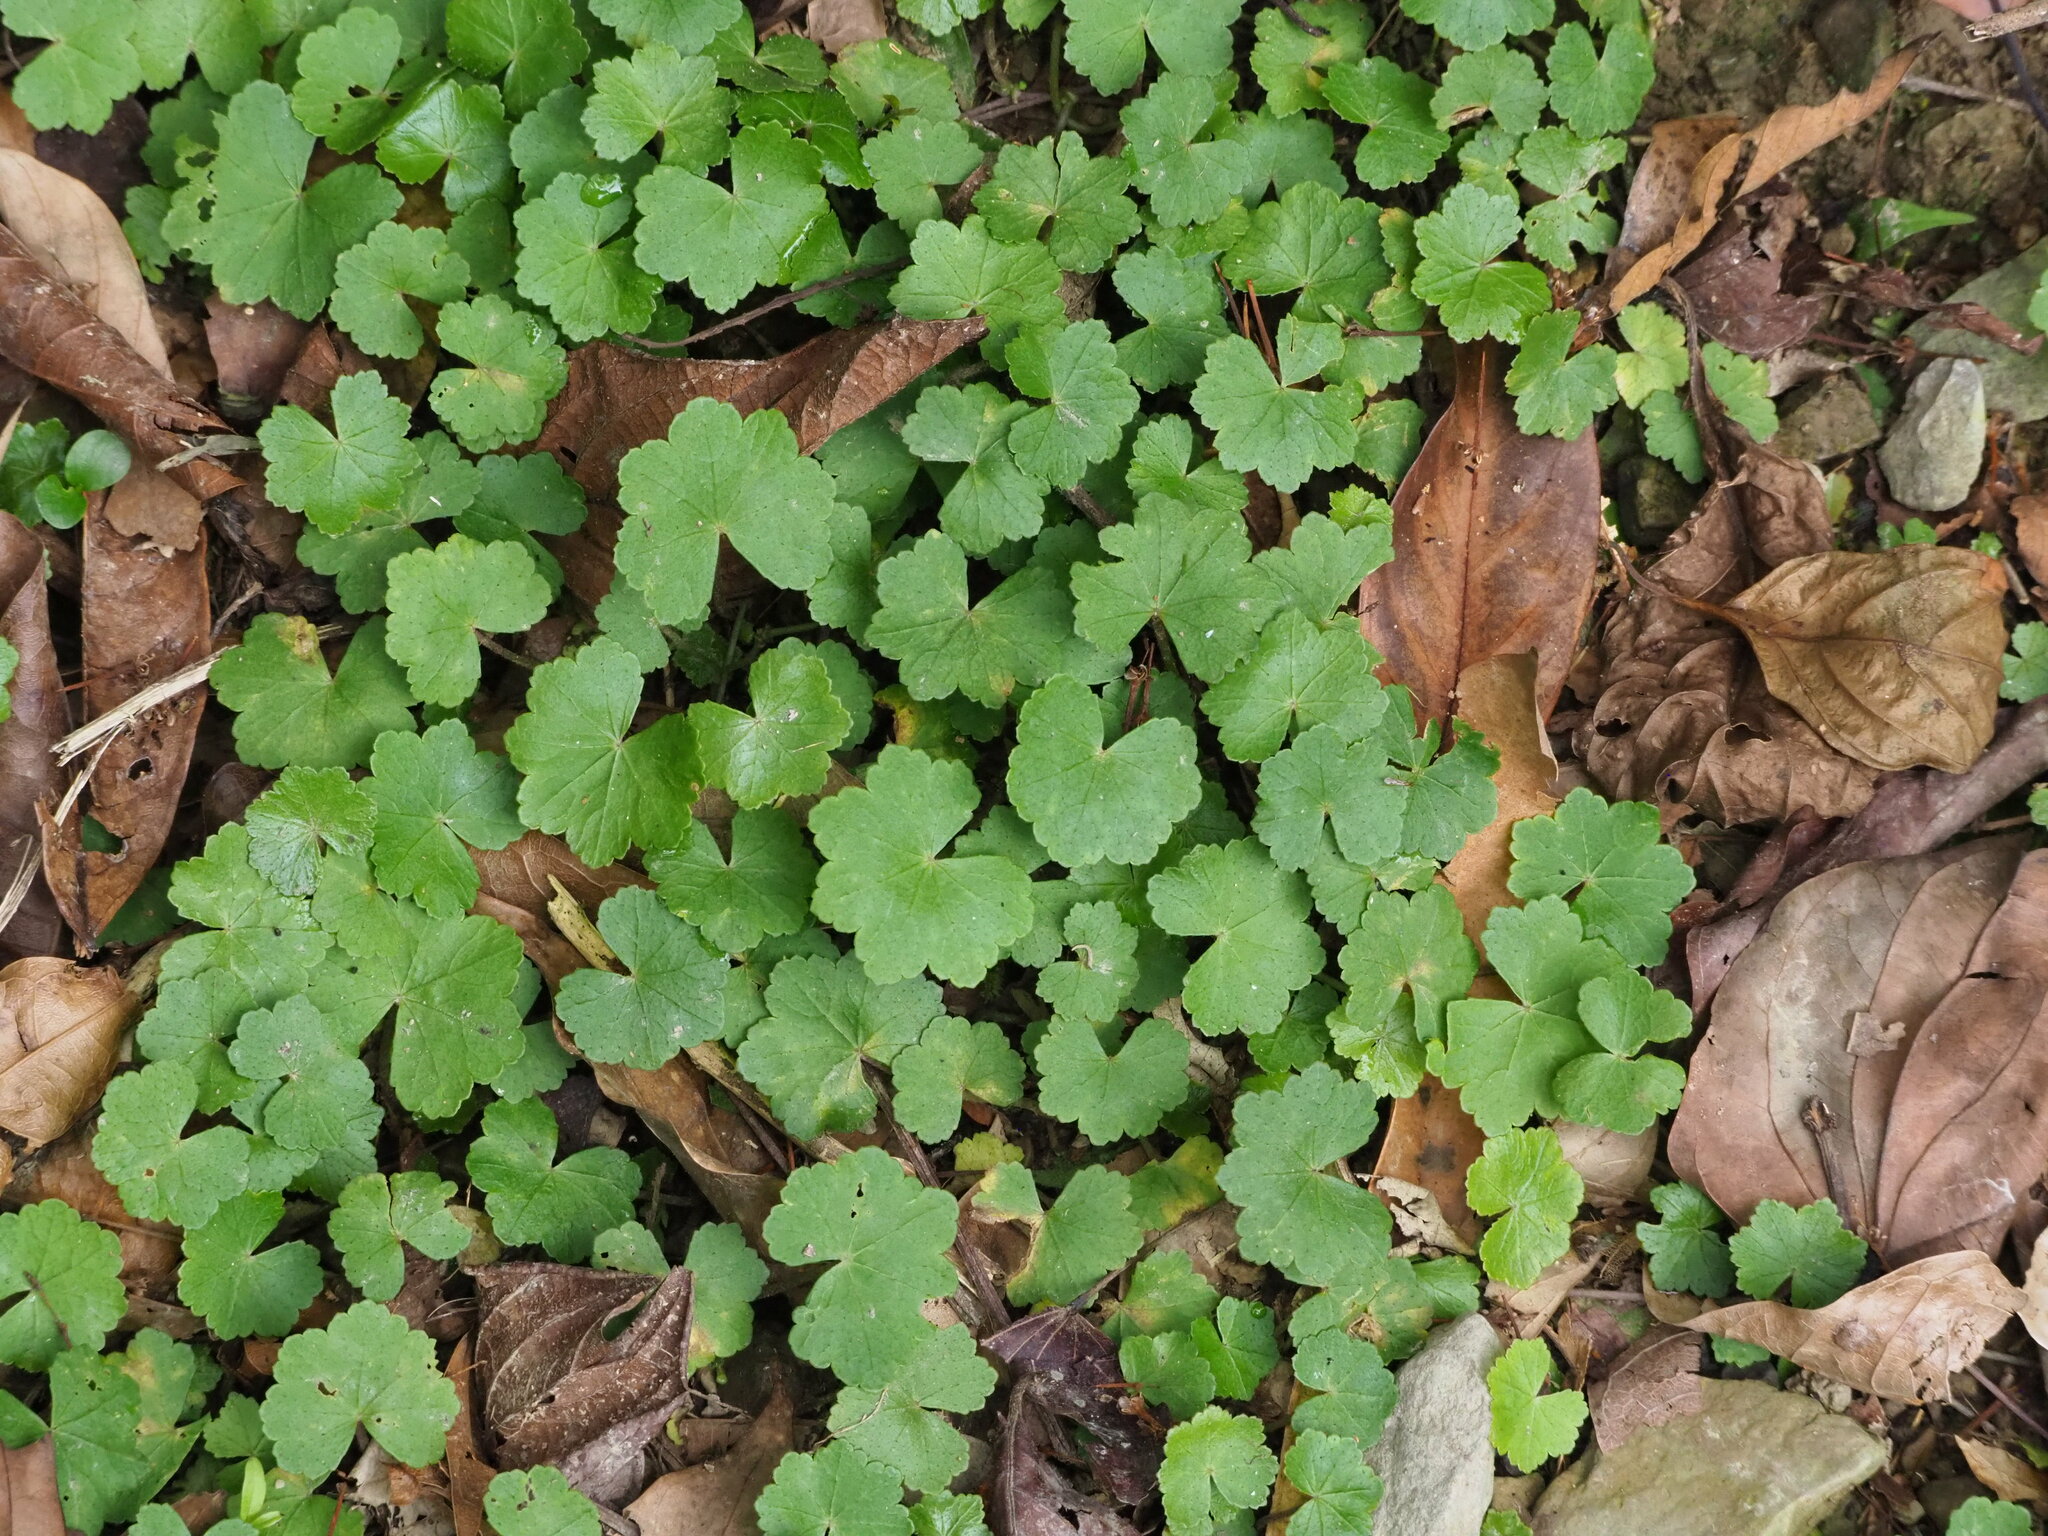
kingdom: Plantae
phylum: Tracheophyta
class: Magnoliopsida
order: Apiales
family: Araliaceae
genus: Hydrocotyle
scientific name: Hydrocotyle nepalensis
